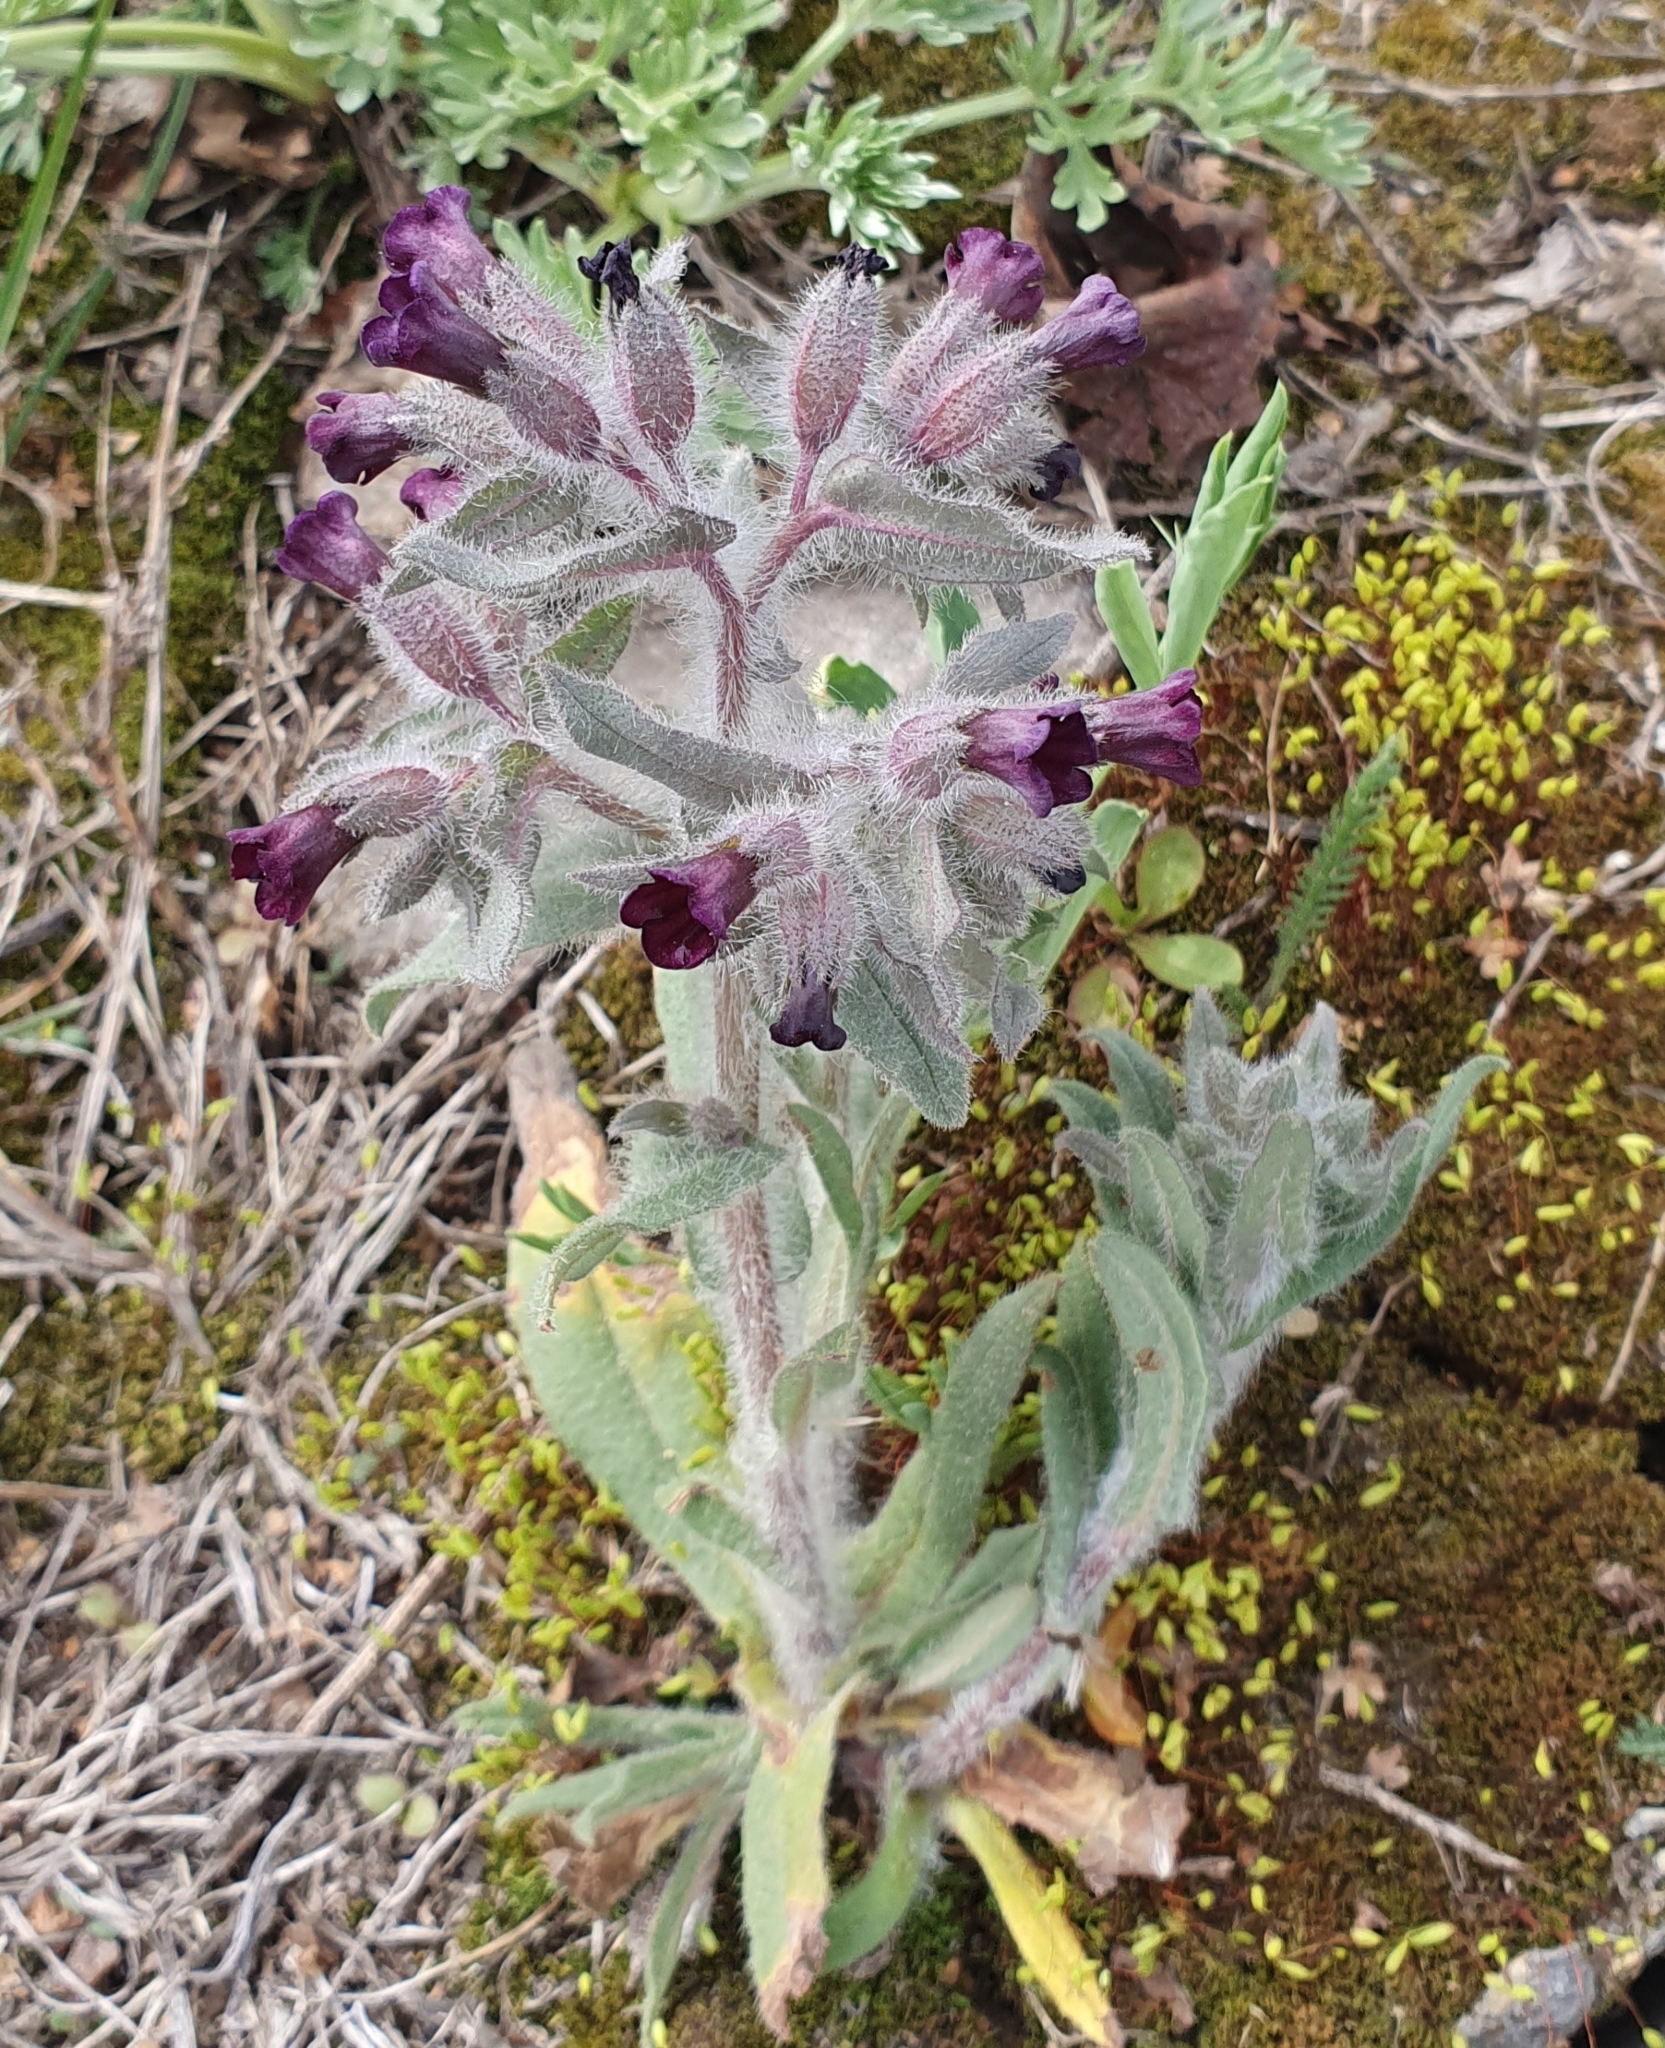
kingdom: Plantae
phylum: Tracheophyta
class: Magnoliopsida
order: Boraginales
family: Boraginaceae
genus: Nonea
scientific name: Nonea pulla
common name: Brown nonea
